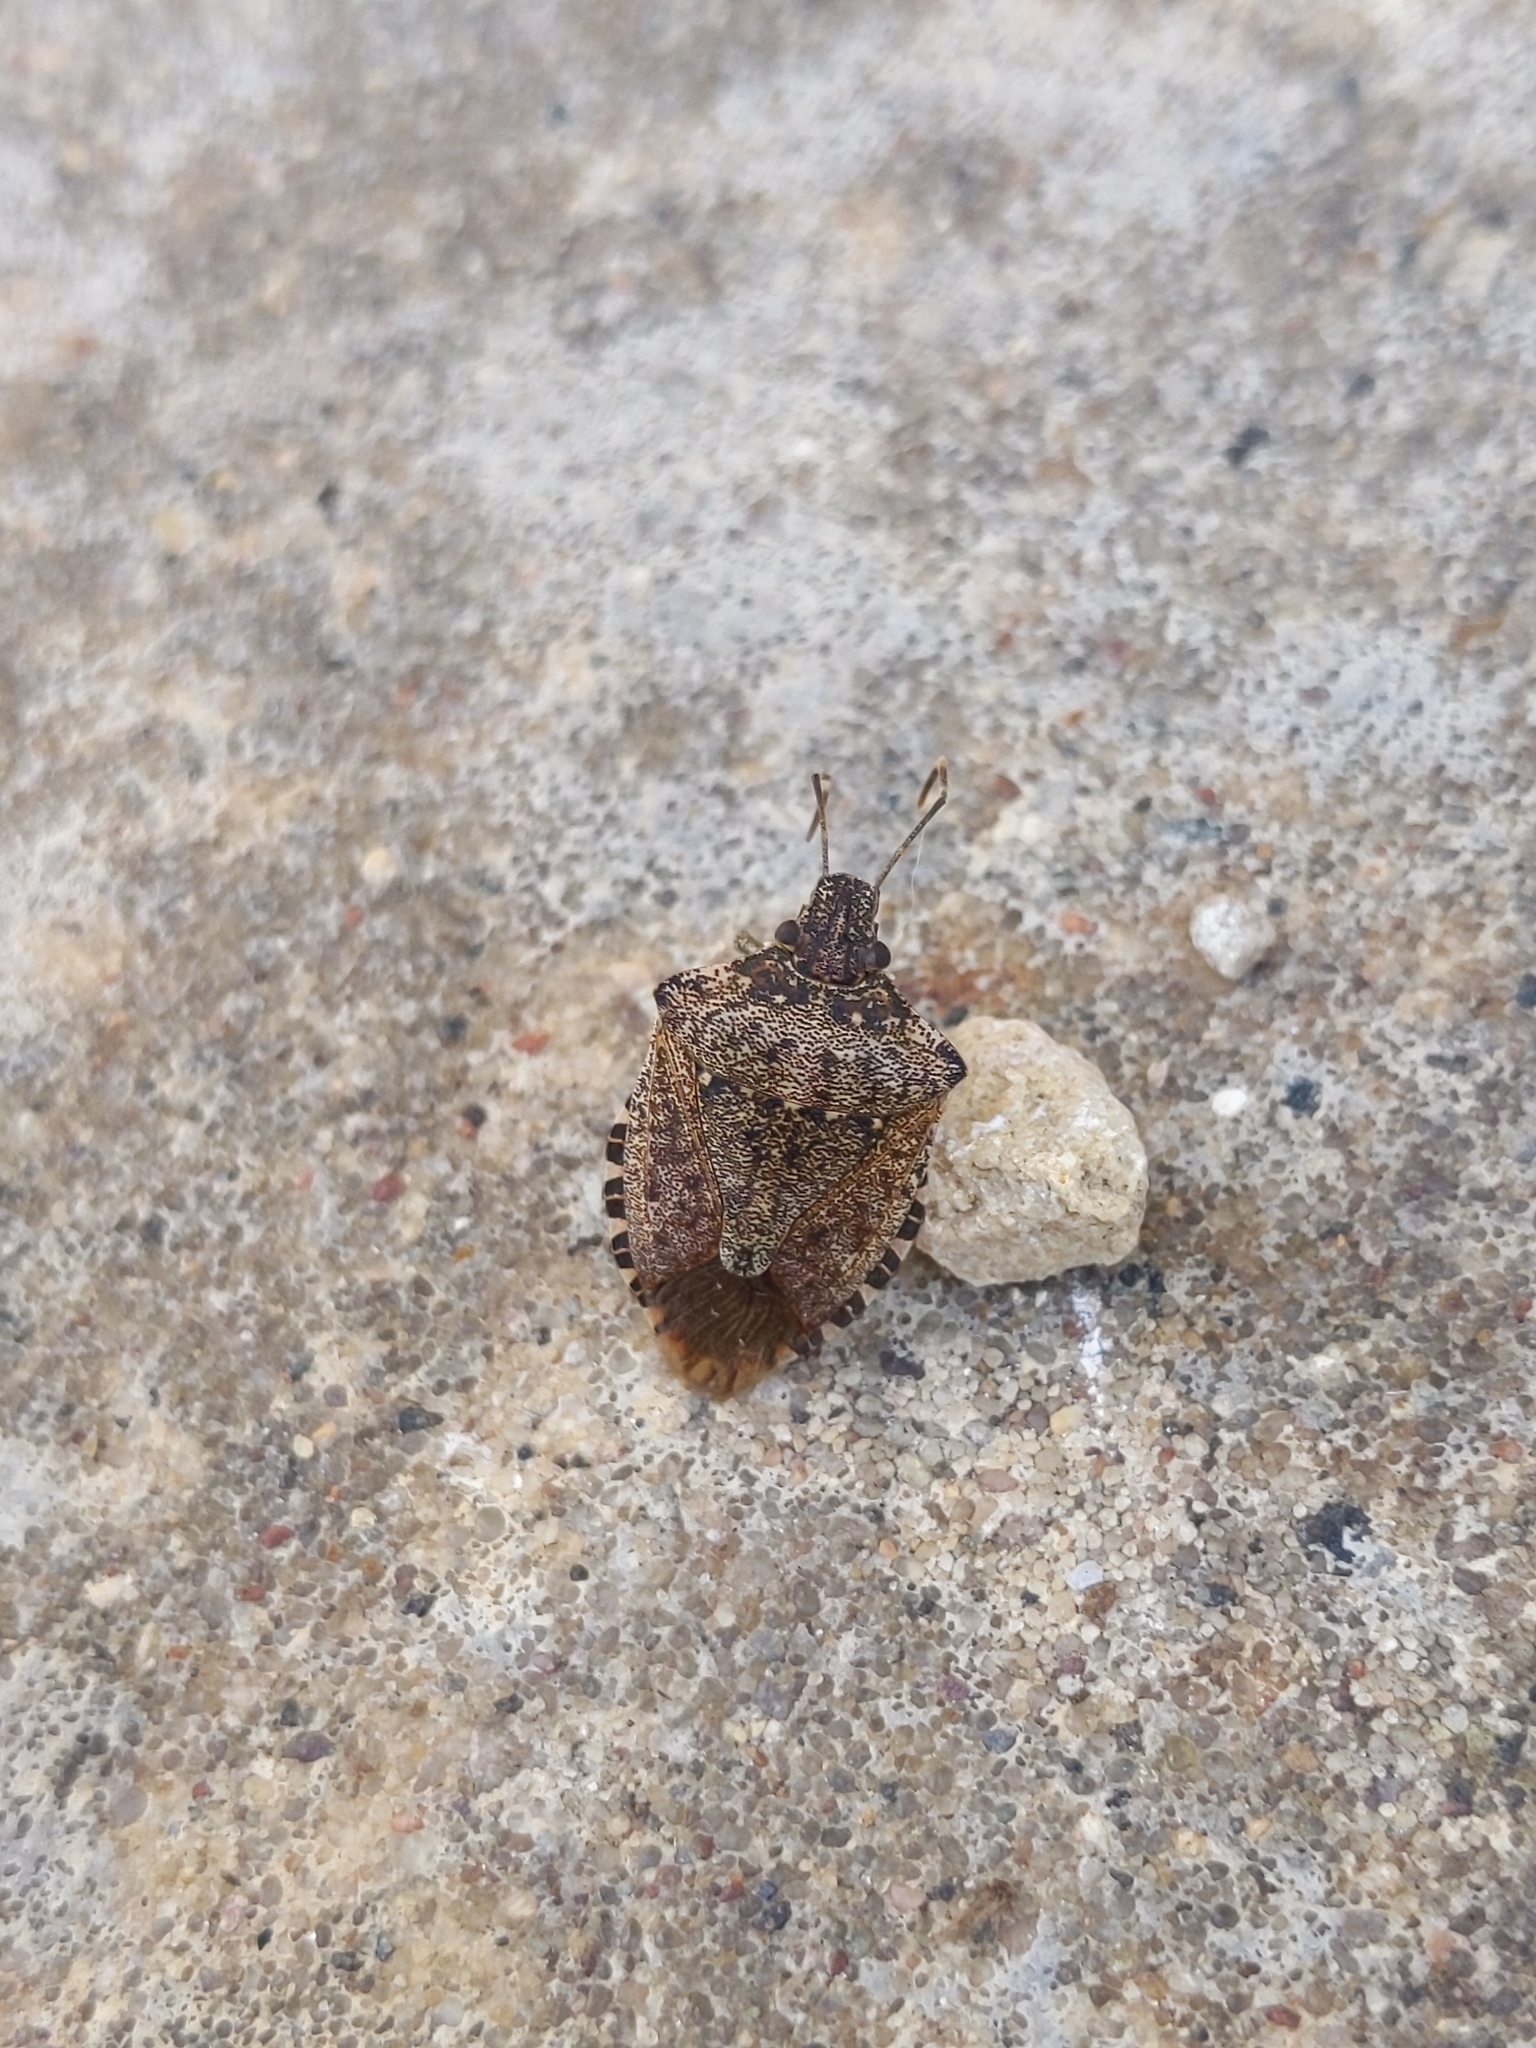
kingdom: Animalia
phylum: Arthropoda
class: Insecta
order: Hemiptera
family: Pentatomidae
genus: Halyomorpha
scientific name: Halyomorpha halys
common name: Brown marmorated stink bug
